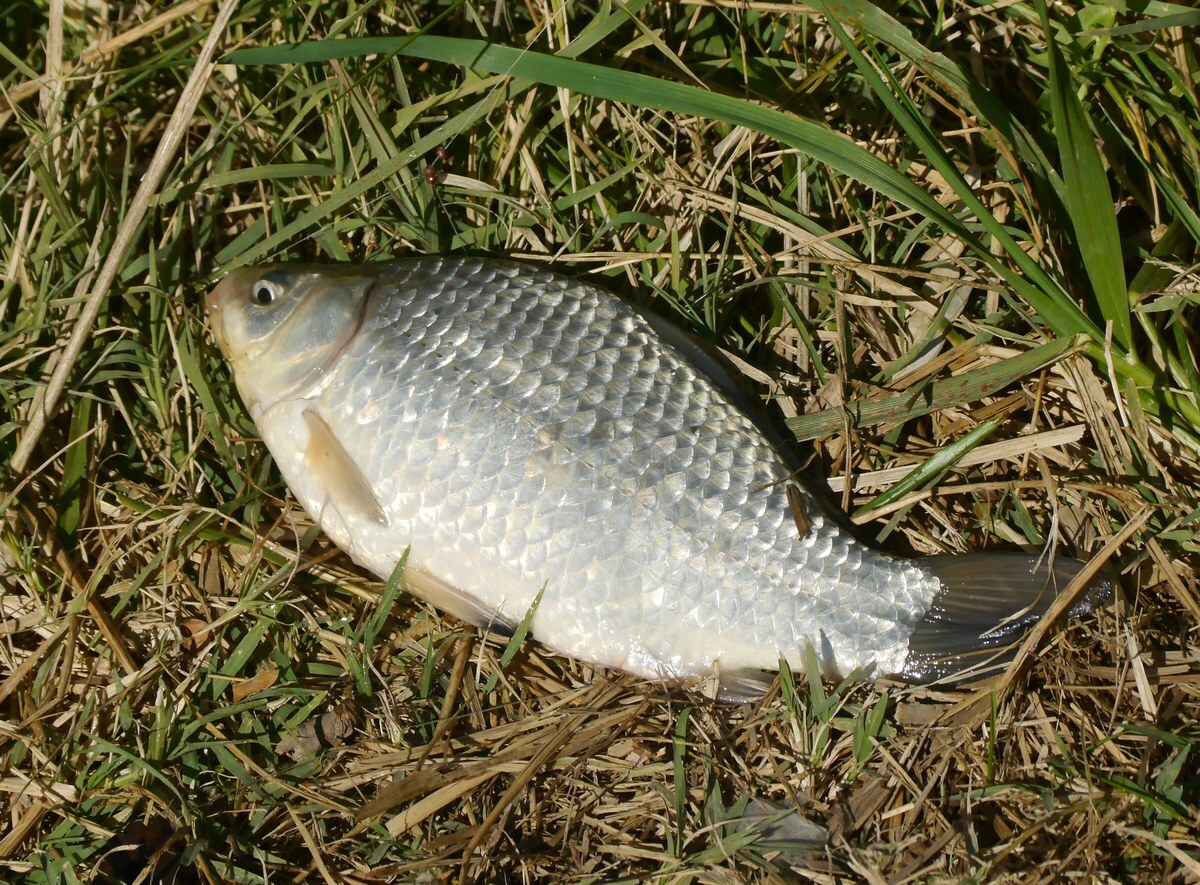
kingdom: Animalia
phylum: Chordata
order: Cypriniformes
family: Cyprinidae
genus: Carassius
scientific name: Carassius gibelio
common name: Prussian carp
